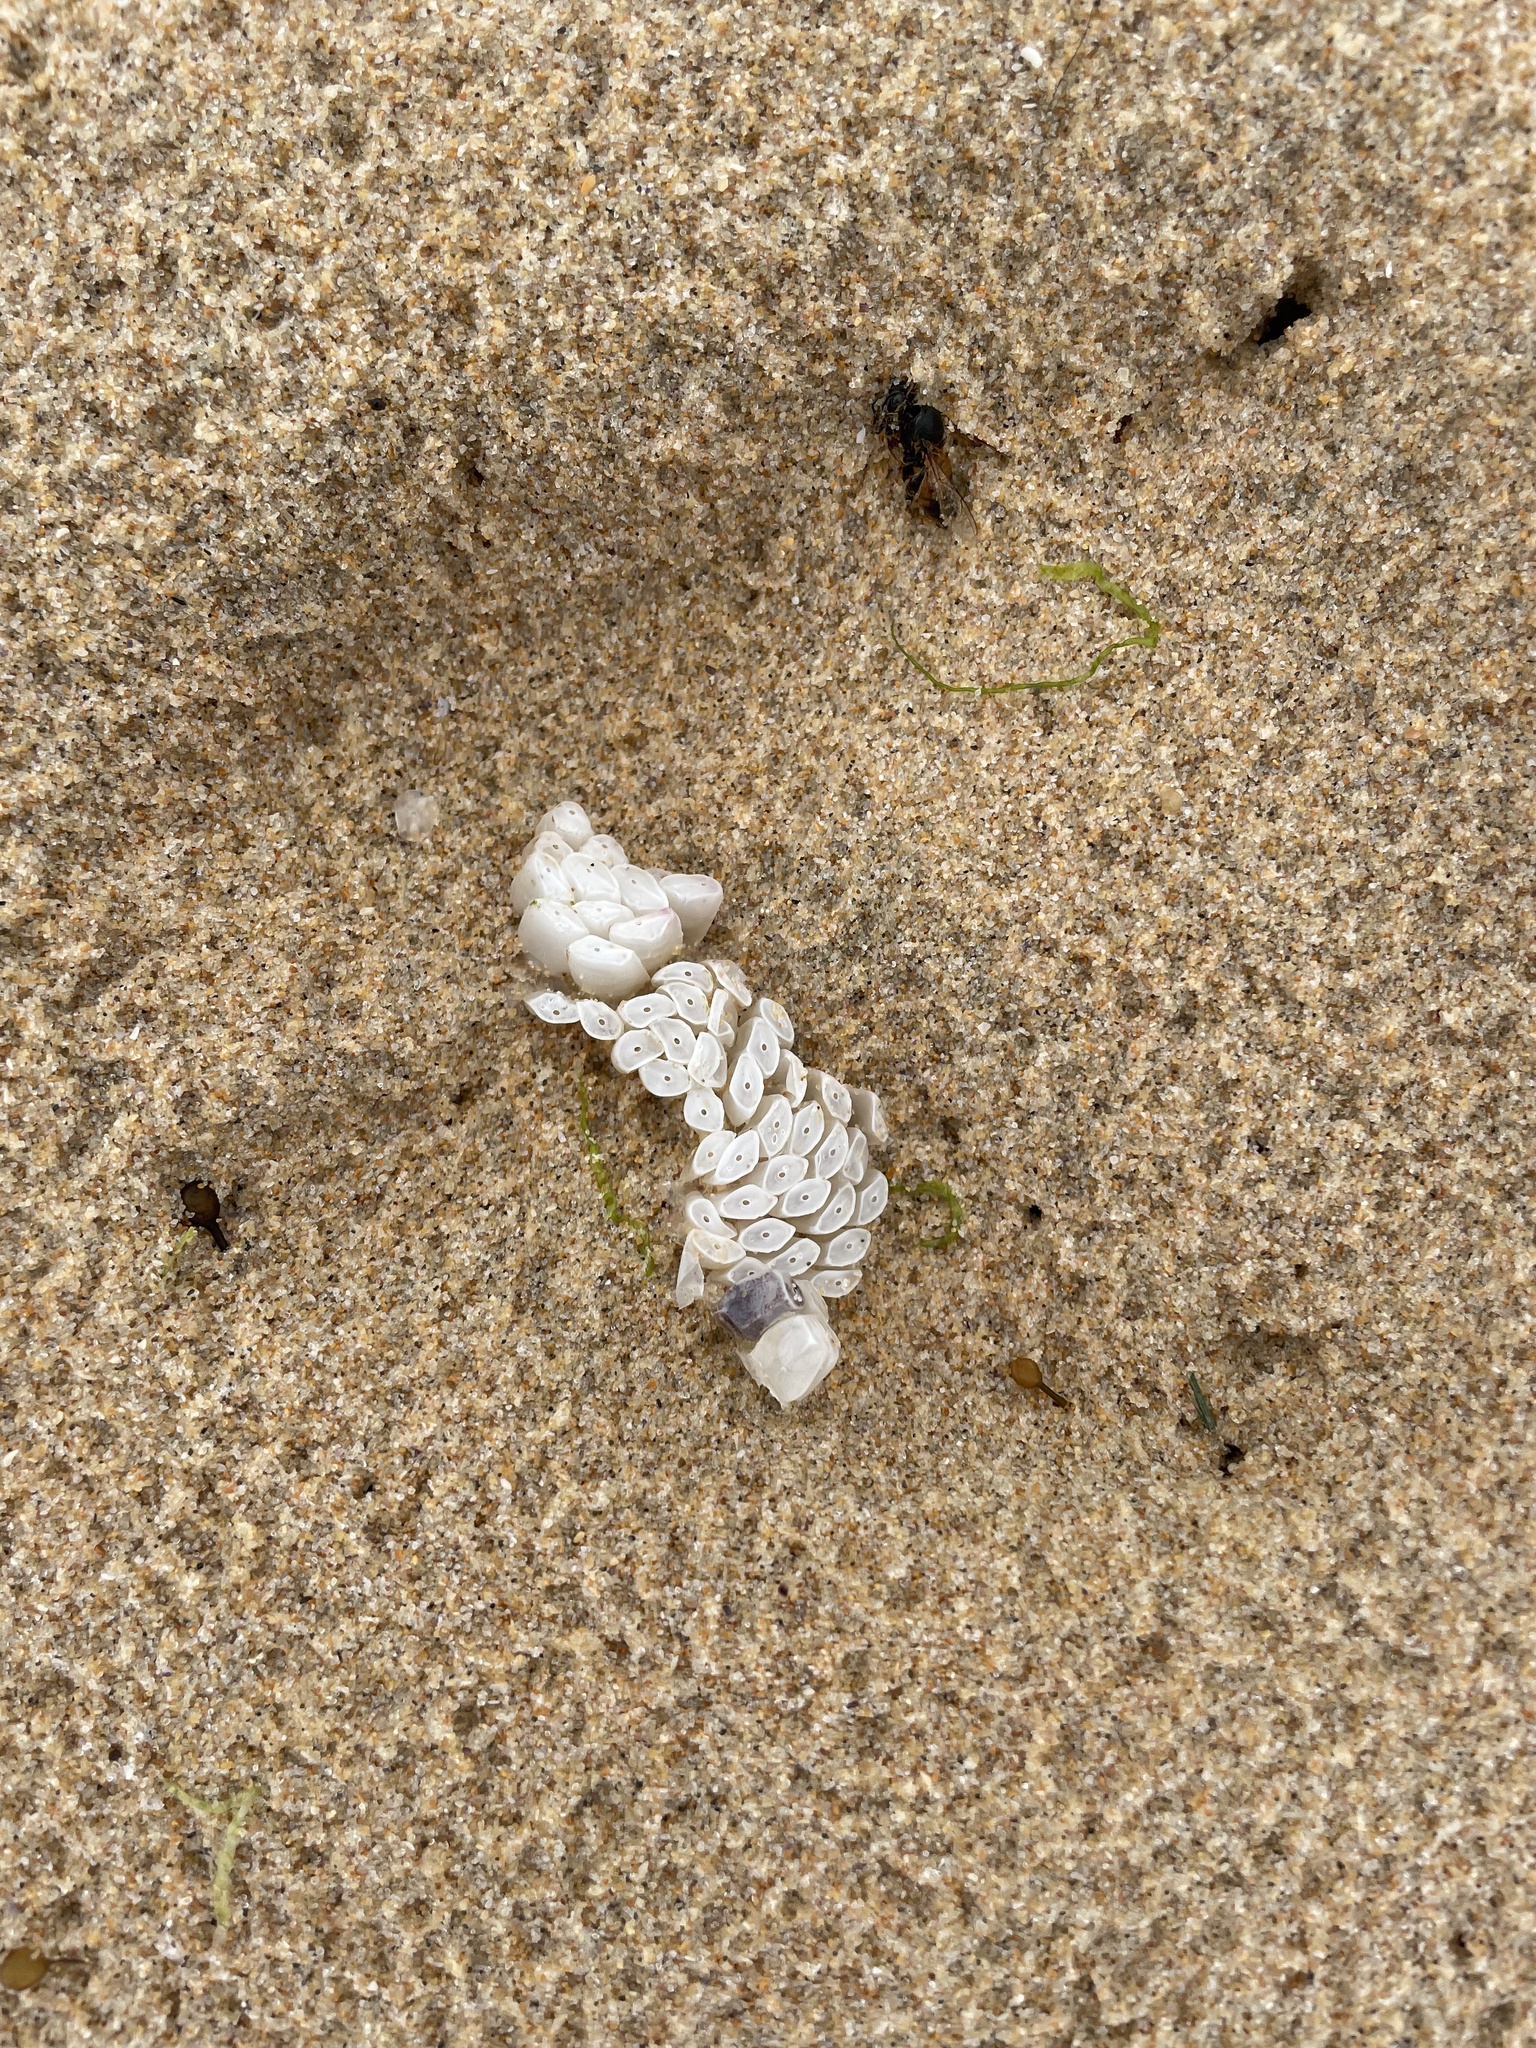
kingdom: Animalia
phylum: Mollusca
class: Gastropoda
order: Neogastropoda
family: Muricidae
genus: Dicathais
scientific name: Dicathais orbita
